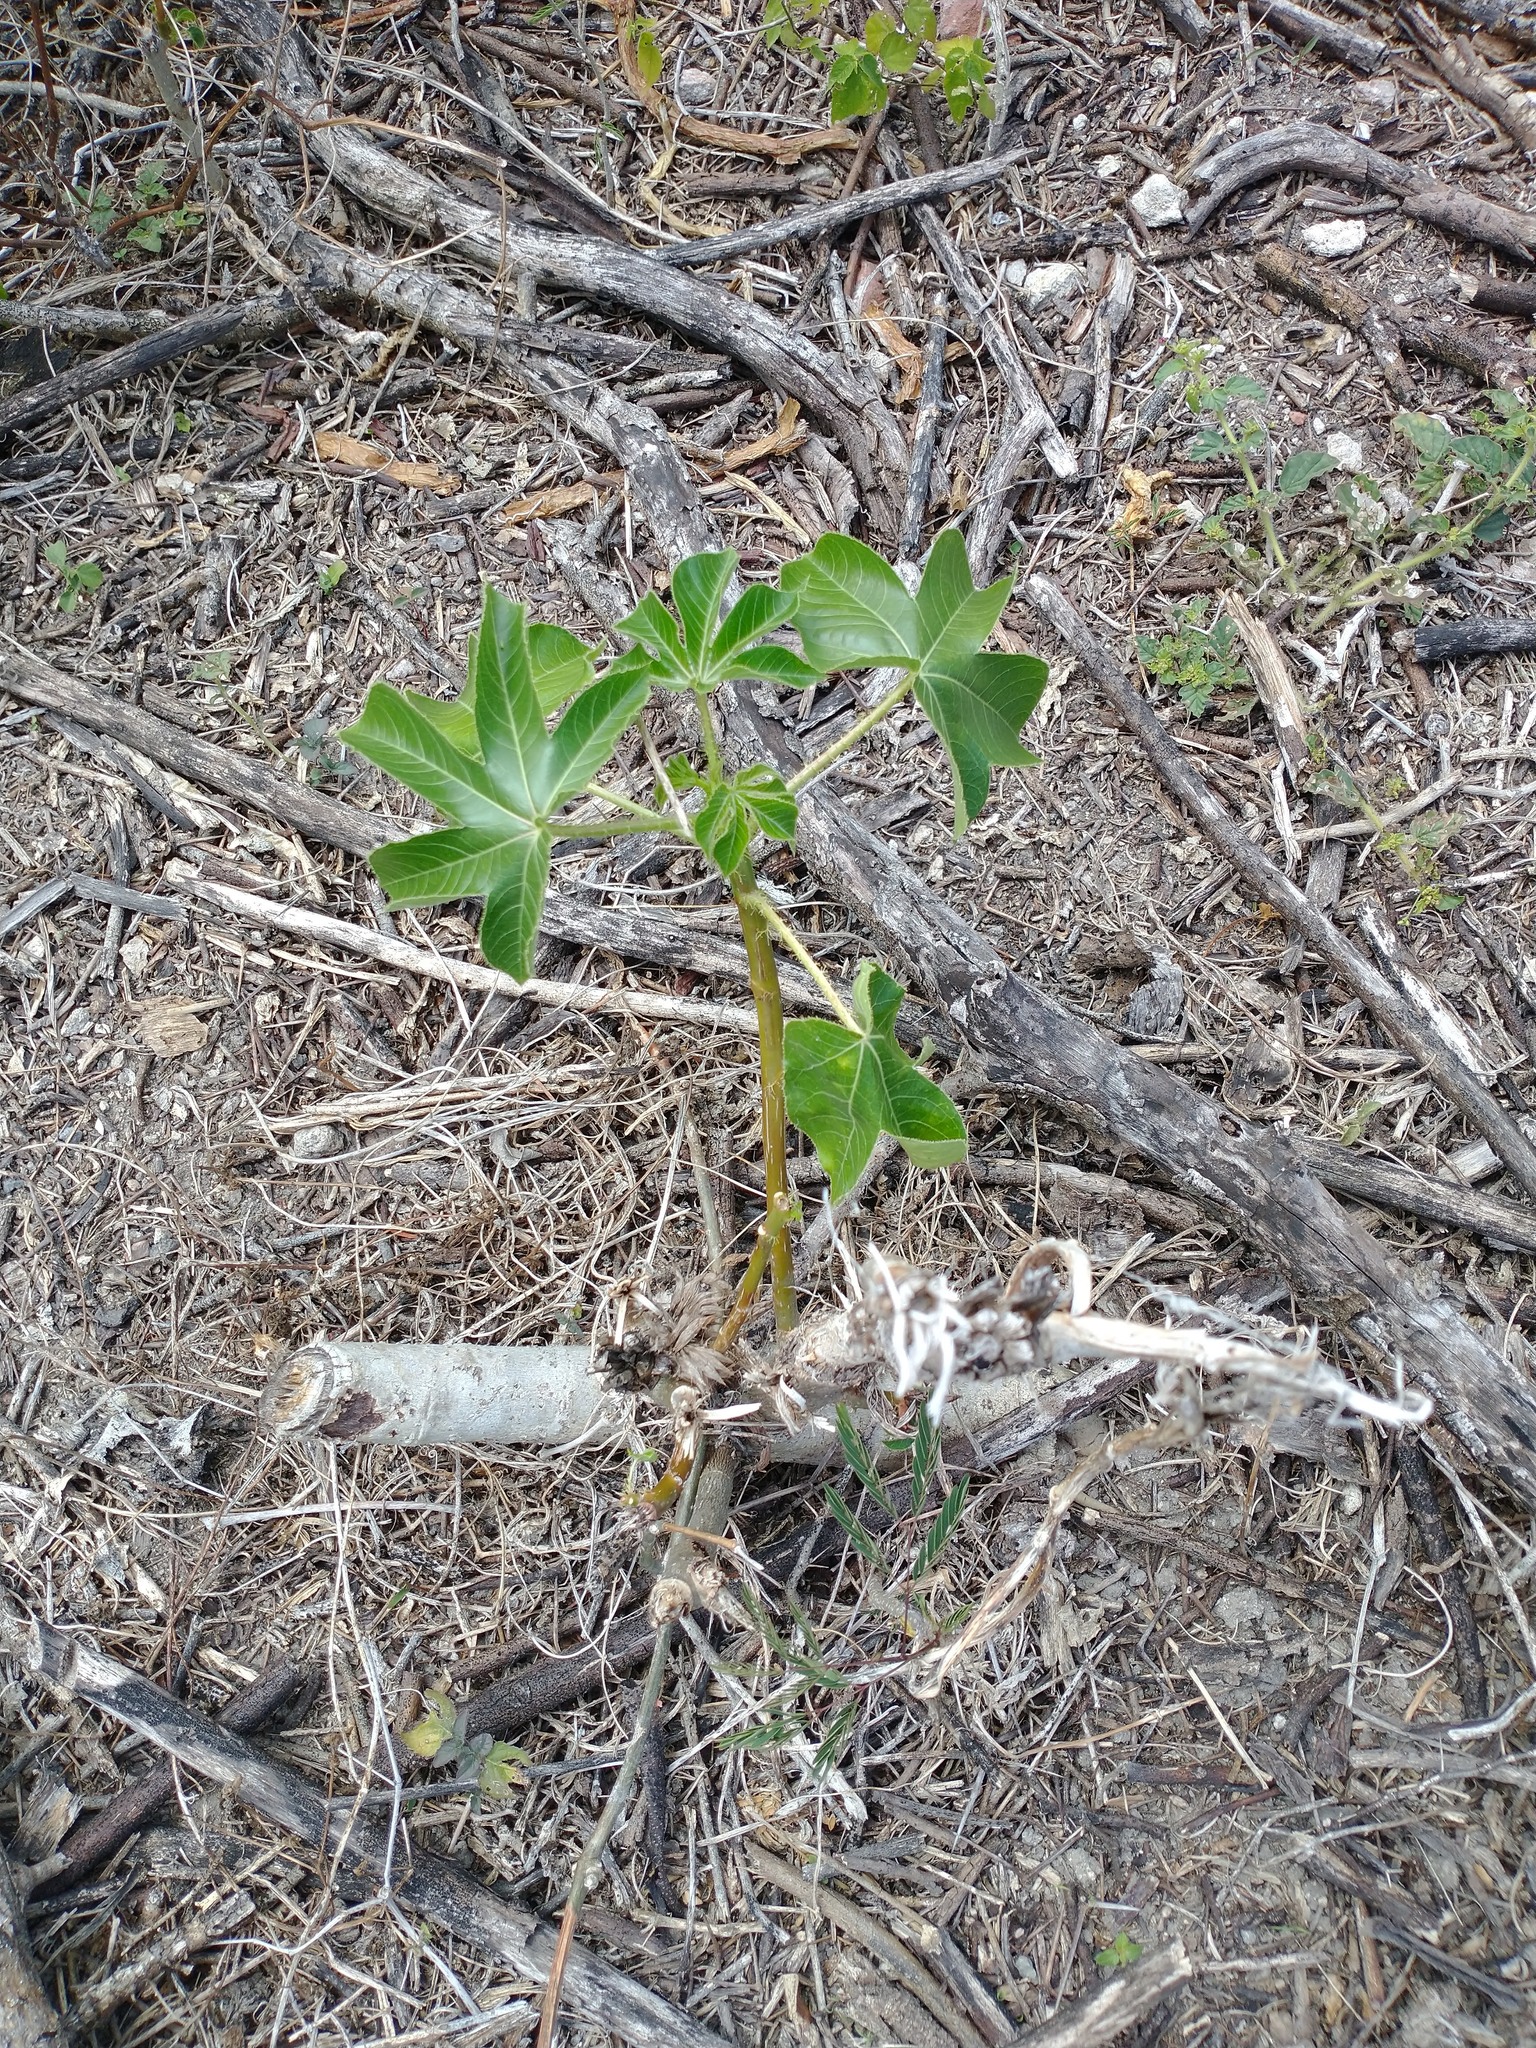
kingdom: Plantae
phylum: Tracheophyta
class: Magnoliopsida
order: Malpighiales
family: Euphorbiaceae
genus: Jatropha
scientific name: Jatropha gossypiifolia
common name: Bellyache bush
